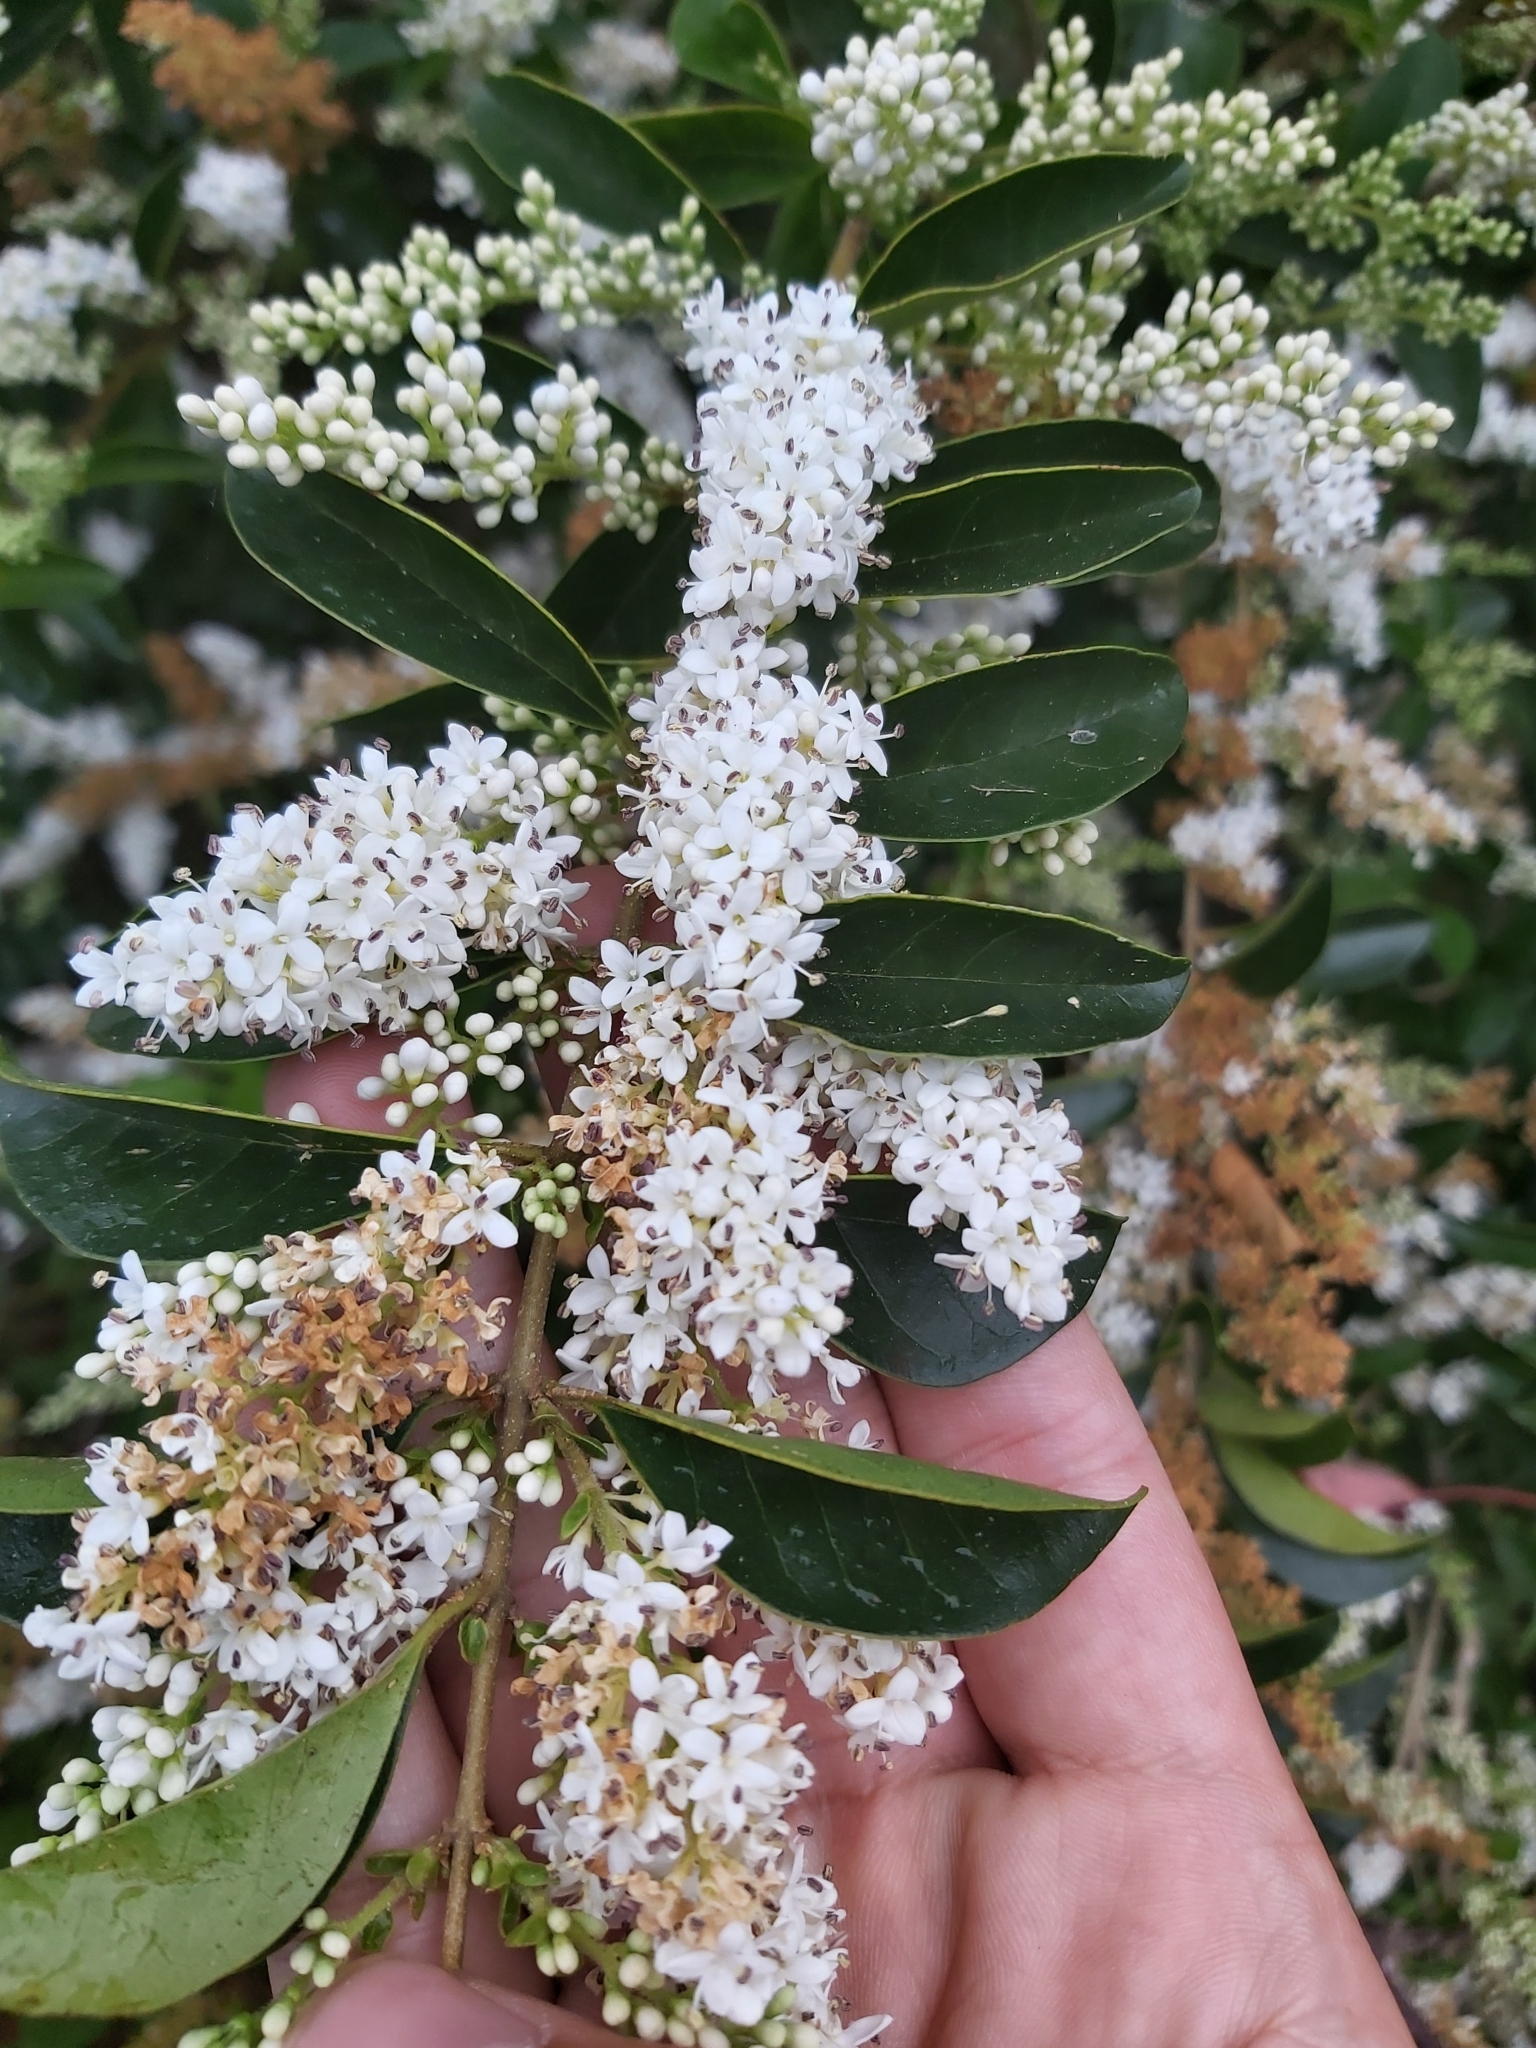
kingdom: Plantae
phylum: Tracheophyta
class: Magnoliopsida
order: Lamiales
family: Oleaceae
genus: Ligustrum
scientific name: Ligustrum lucidum
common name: Glossy privet
